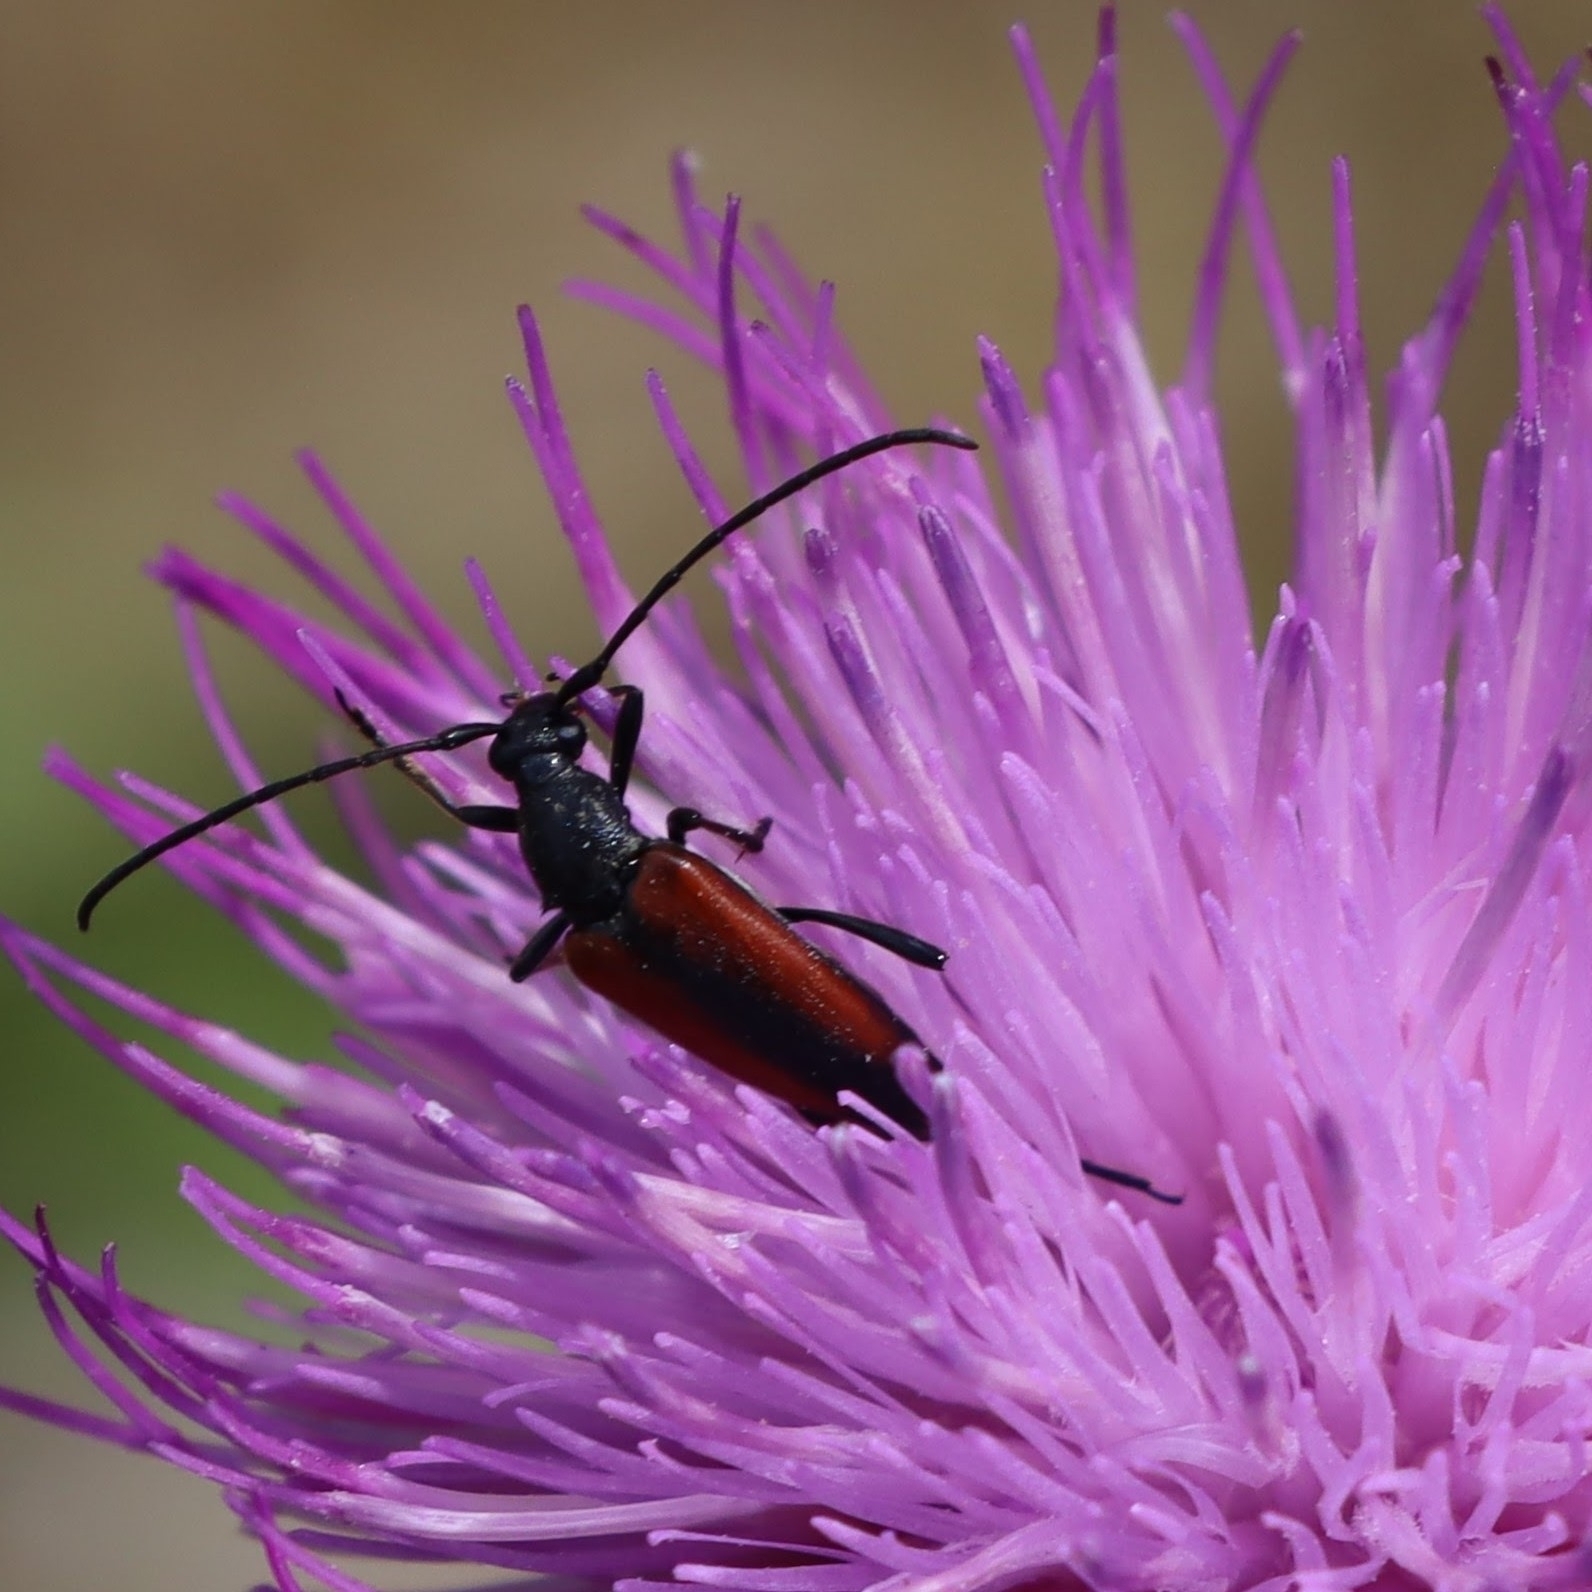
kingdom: Animalia
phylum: Arthropoda
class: Insecta
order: Coleoptera
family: Cerambycidae
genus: Stenurella
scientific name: Stenurella melanura
